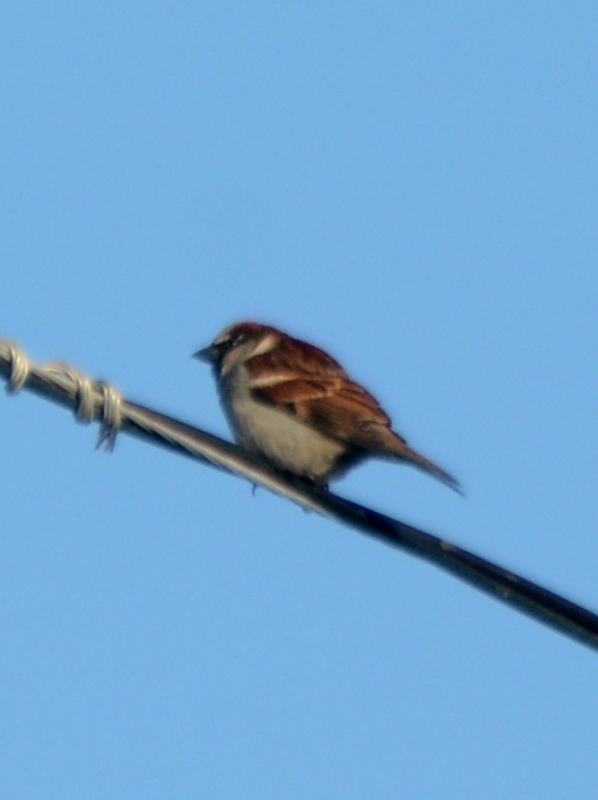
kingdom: Animalia
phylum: Chordata
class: Aves
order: Passeriformes
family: Passeridae
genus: Passer
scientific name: Passer domesticus
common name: House sparrow
